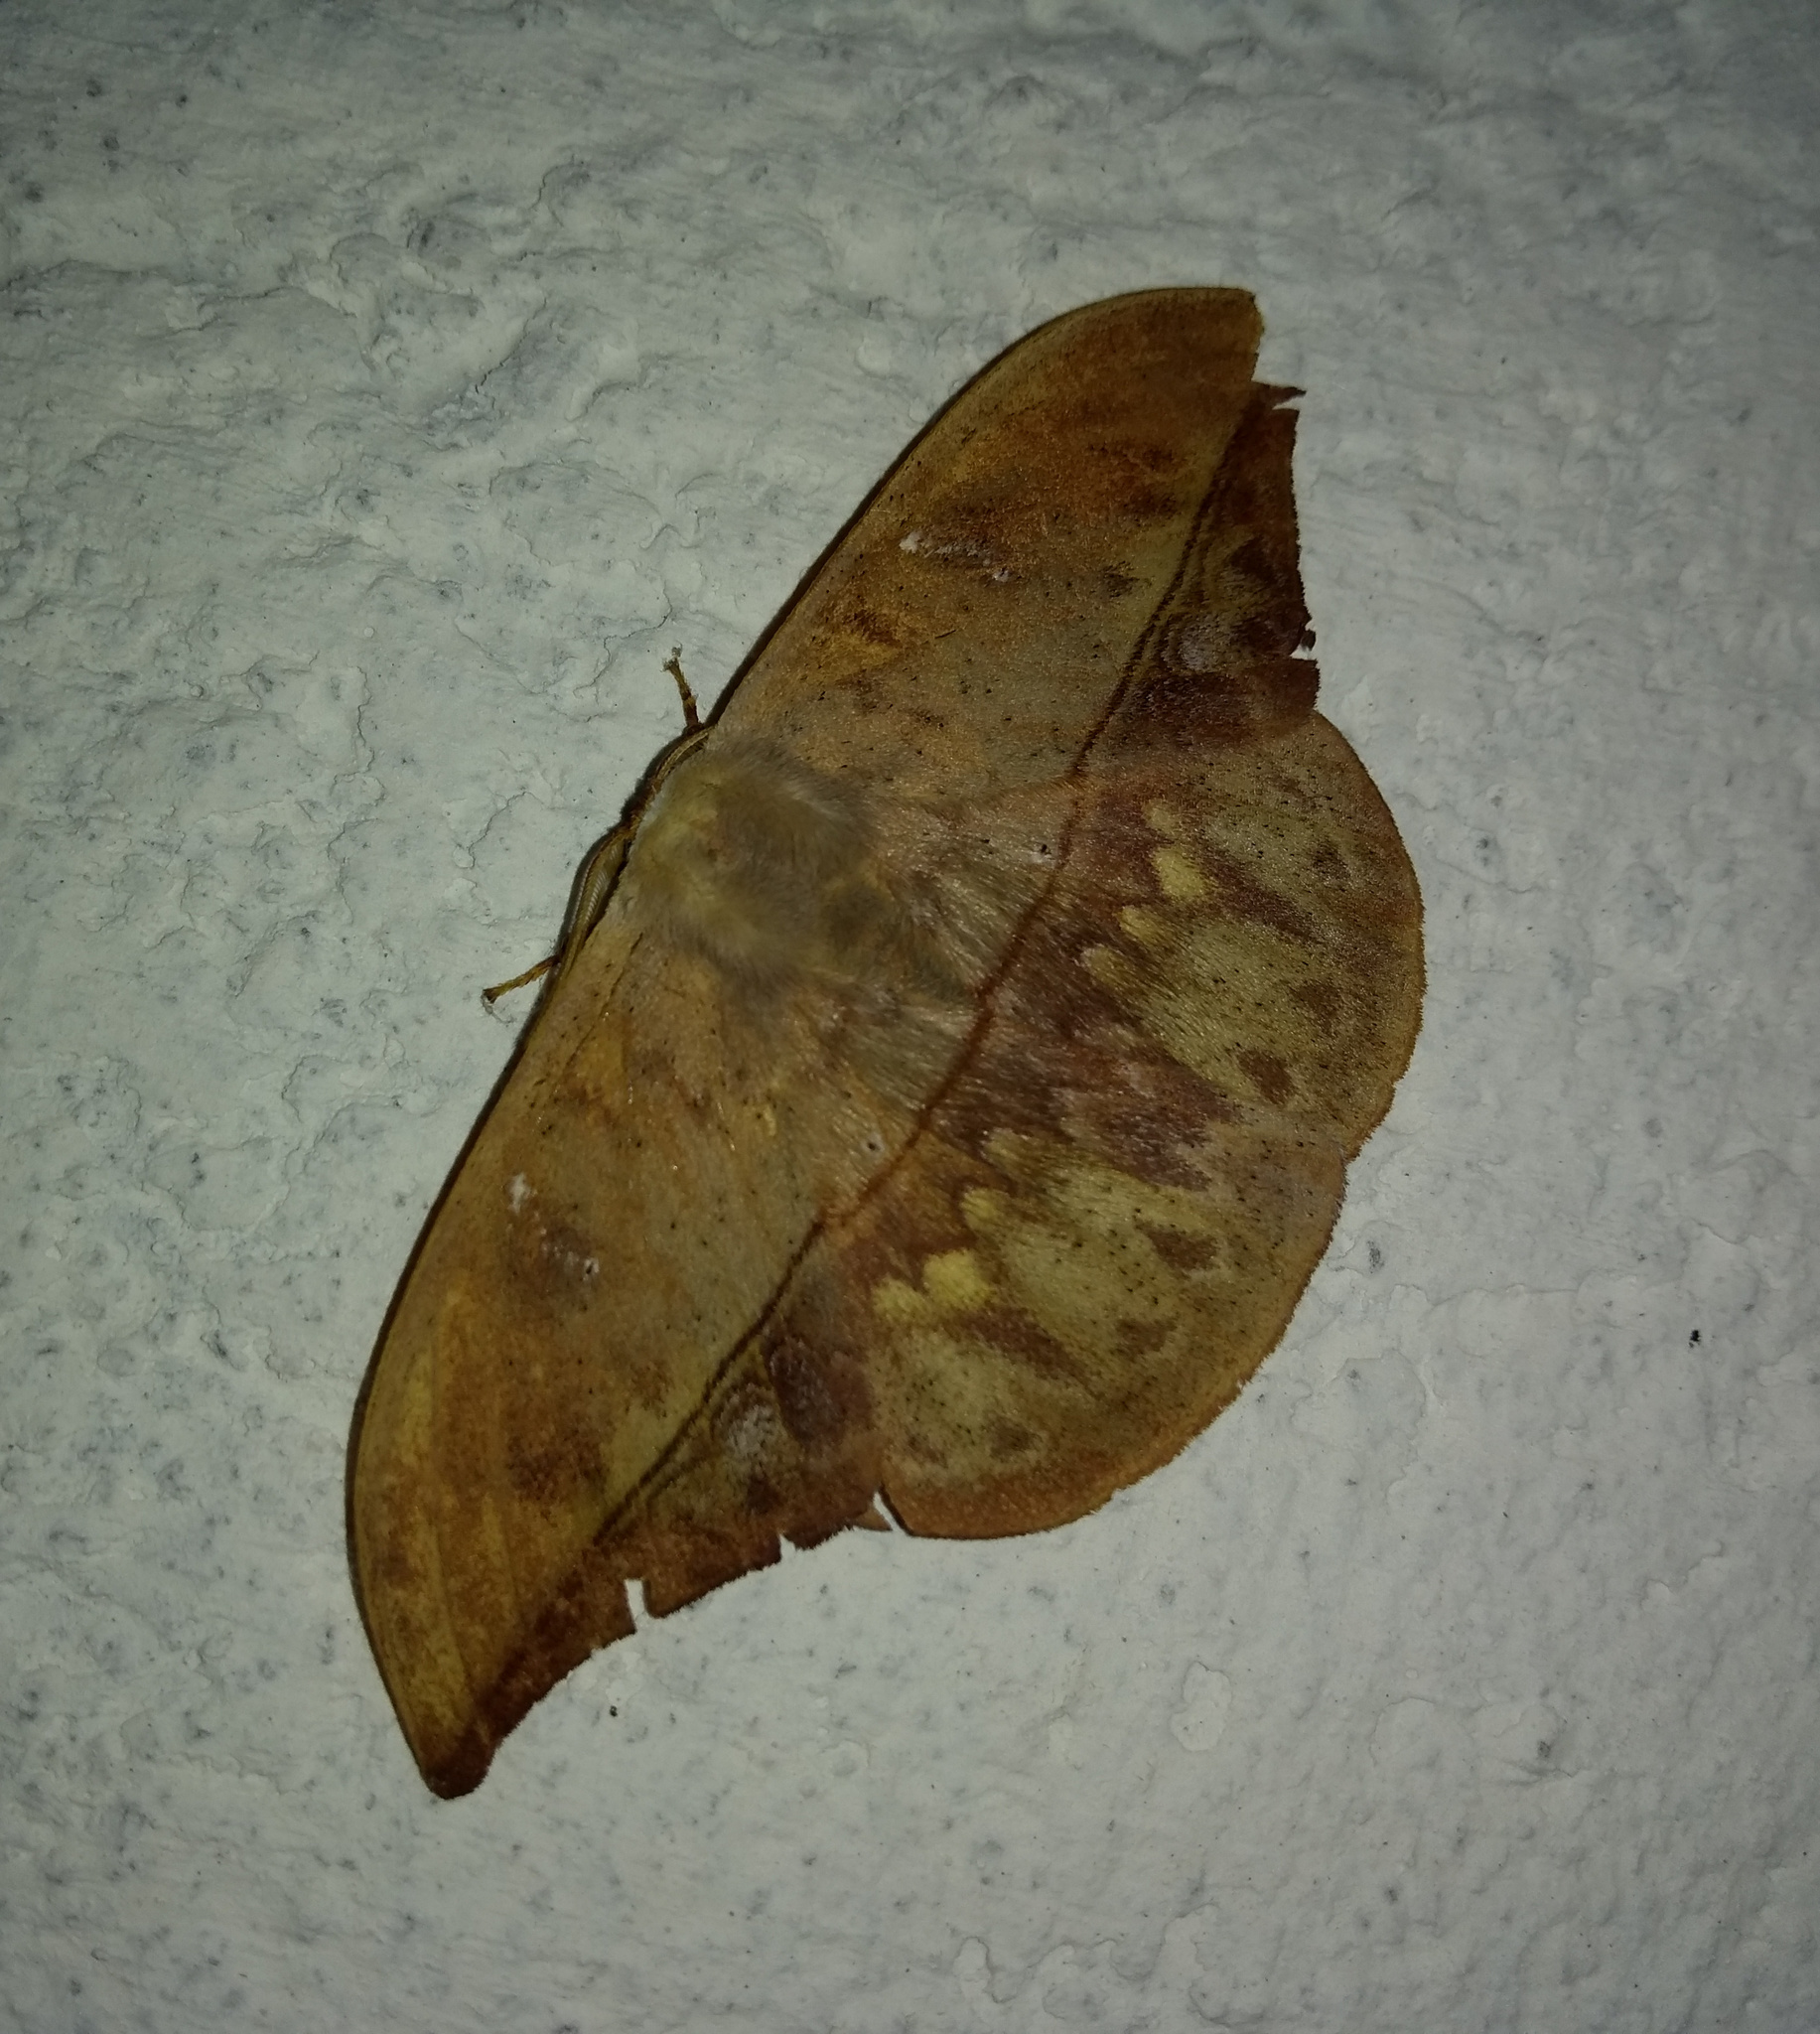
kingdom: Animalia
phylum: Arthropoda
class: Insecta
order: Lepidoptera
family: Saturniidae
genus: Oxytenis
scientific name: Oxytenis modestia
